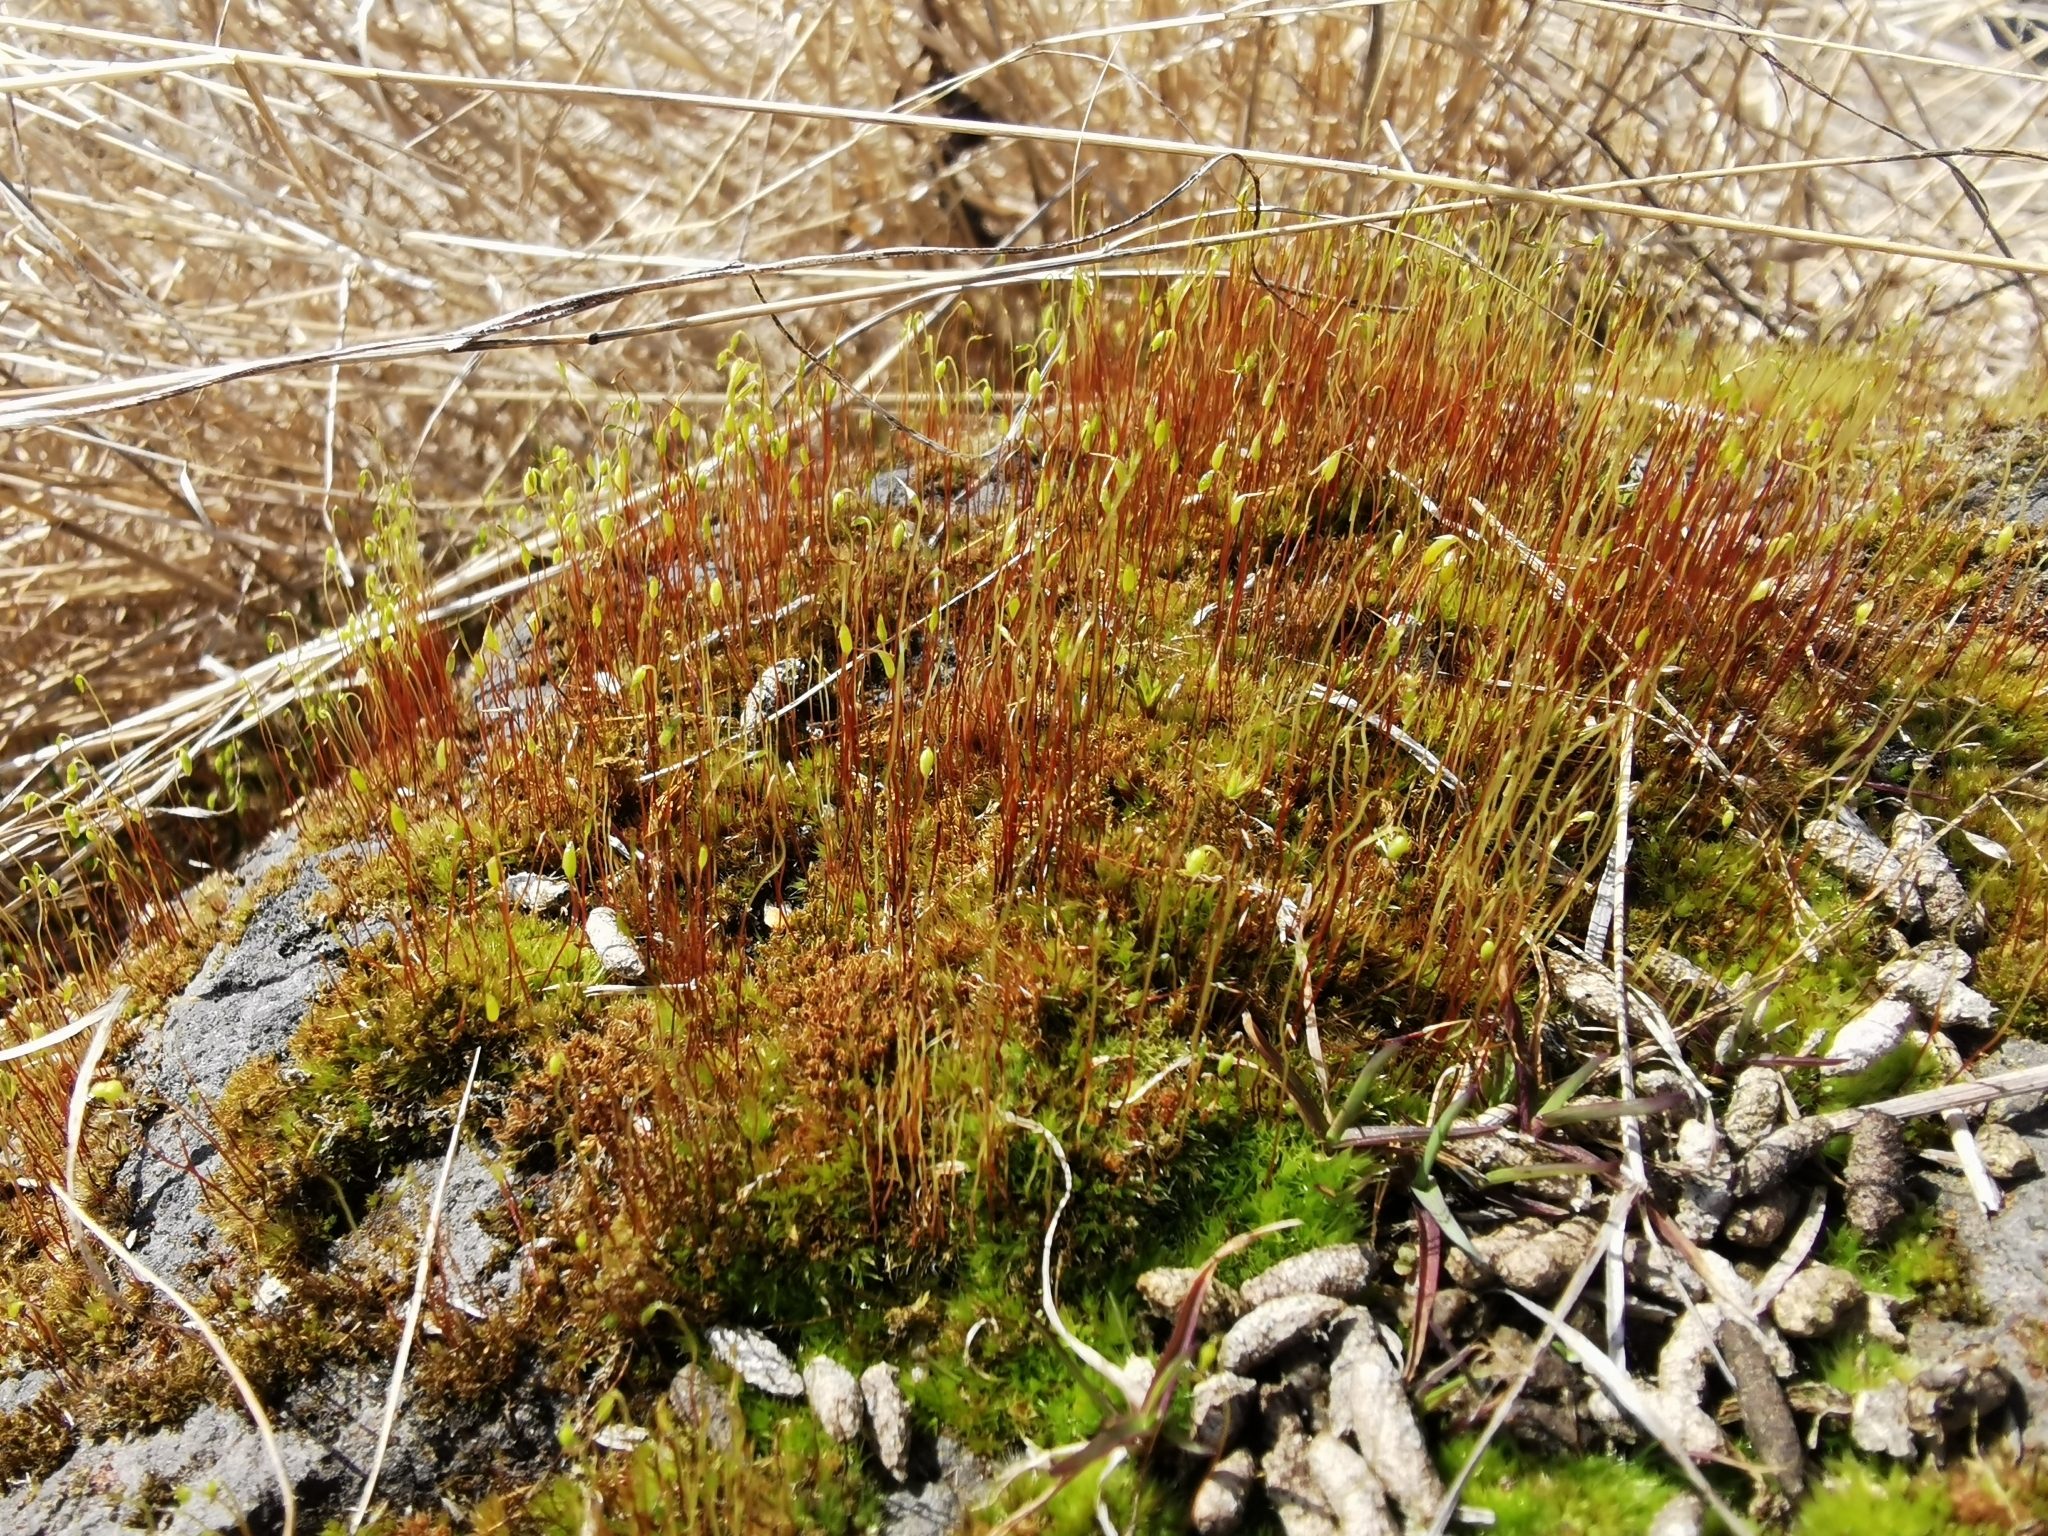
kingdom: Plantae
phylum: Bryophyta
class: Bryopsida
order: Dicranales
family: Ditrichaceae
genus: Ceratodon
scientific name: Ceratodon purpureus
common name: Redshank
